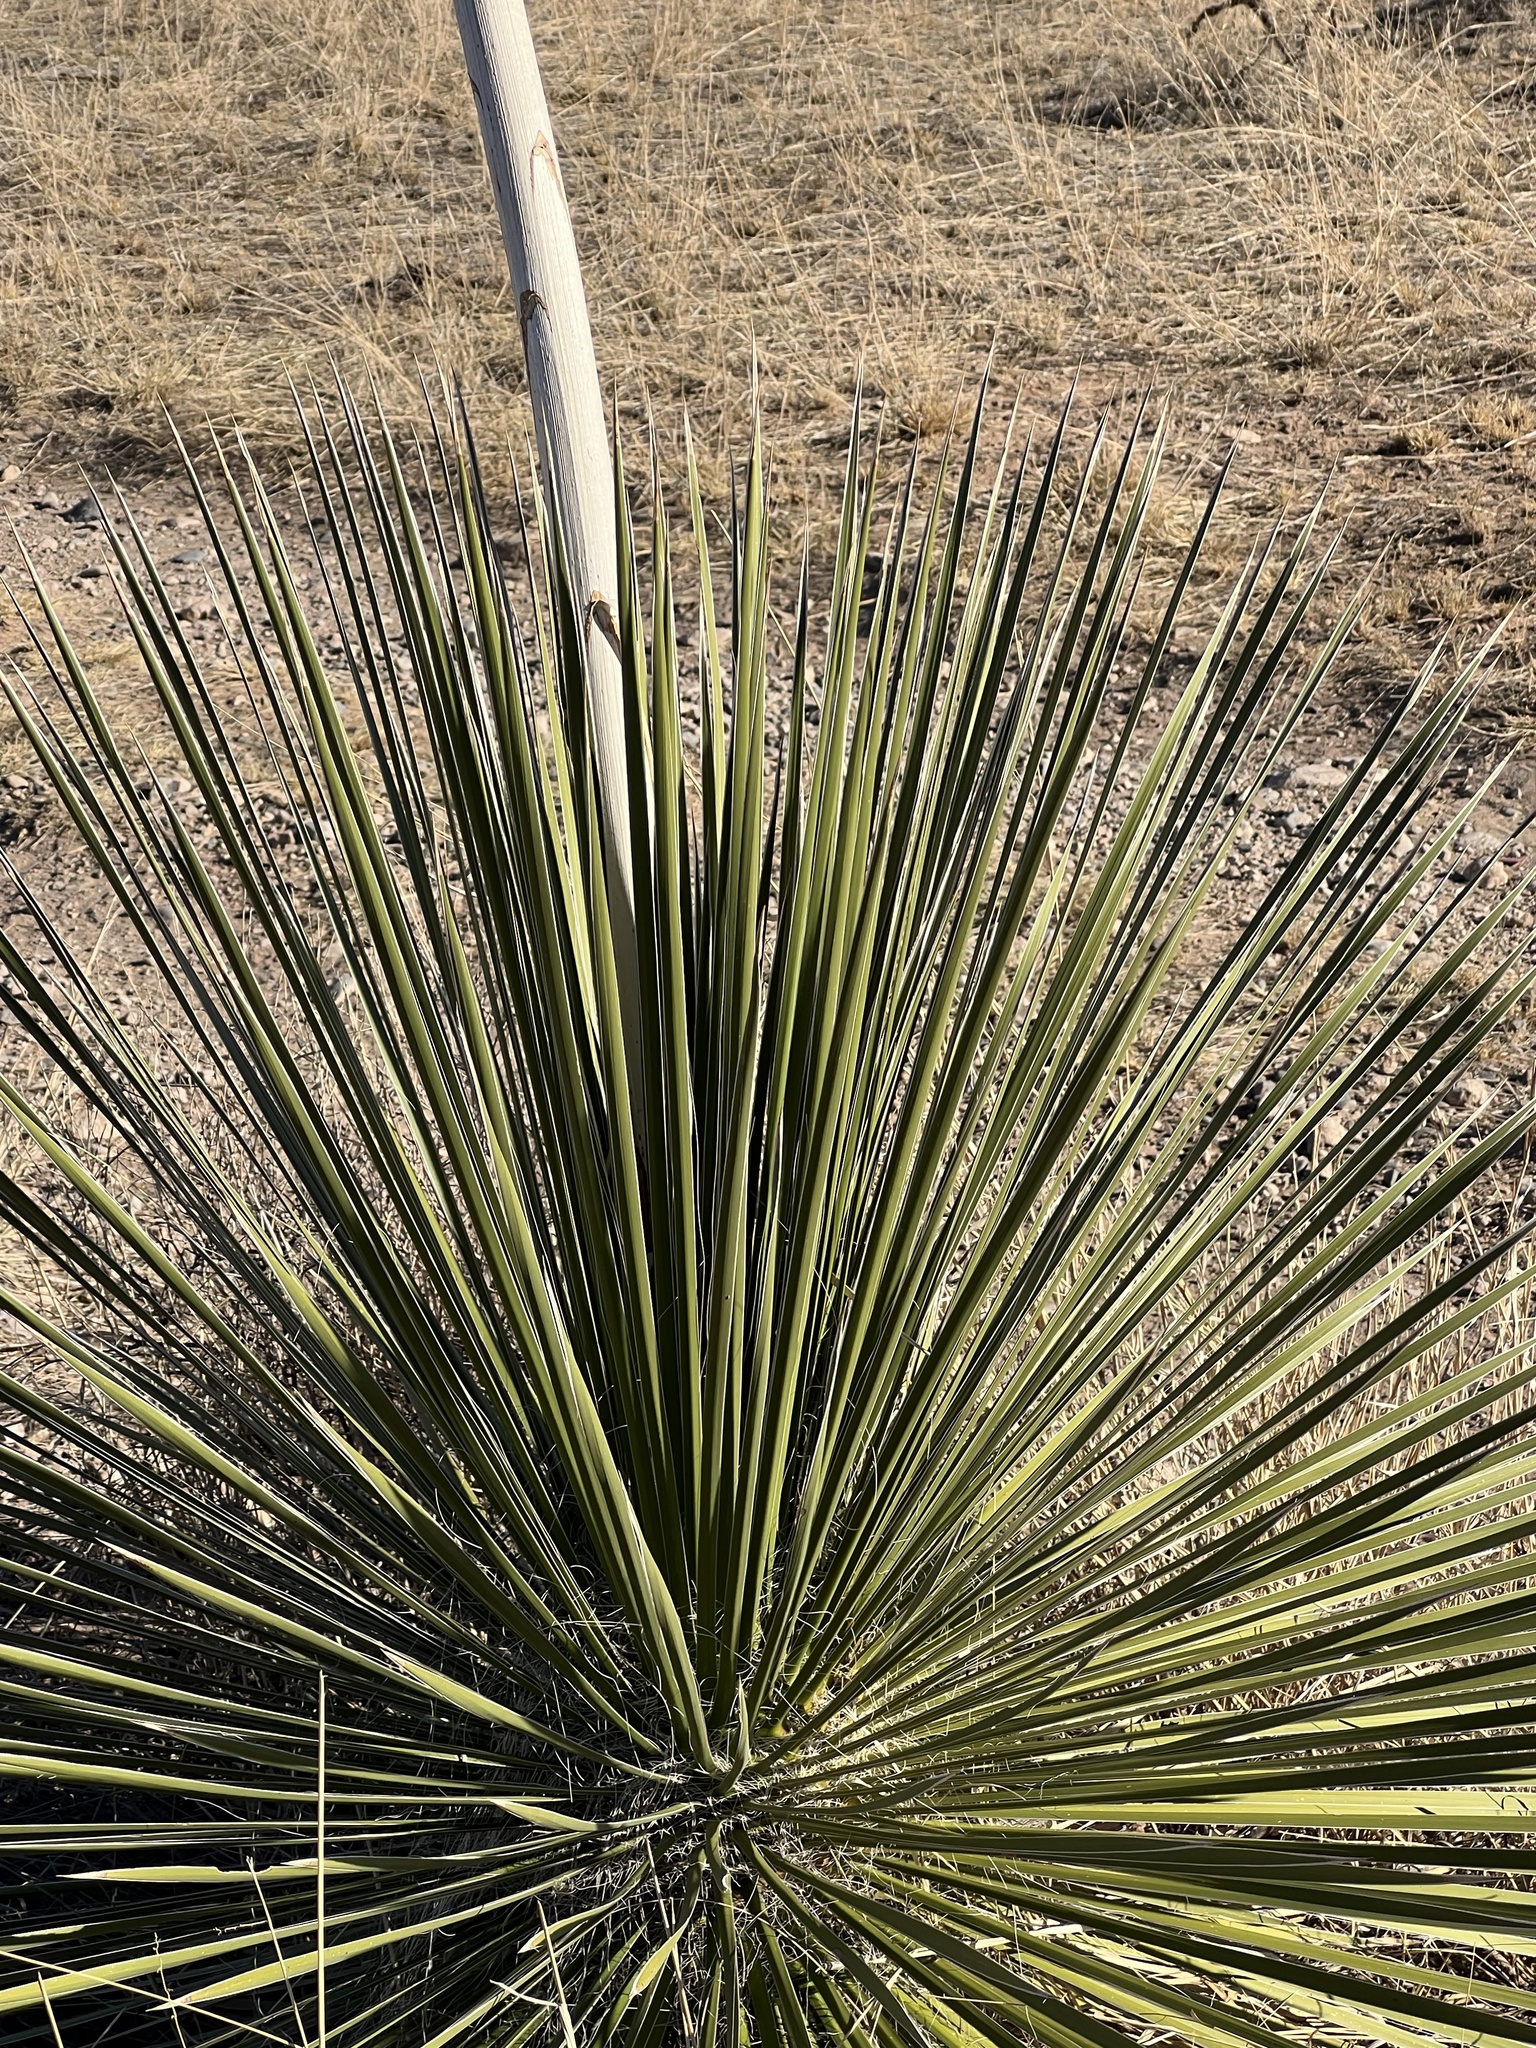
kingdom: Plantae
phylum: Tracheophyta
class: Liliopsida
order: Asparagales
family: Asparagaceae
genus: Yucca
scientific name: Yucca elata
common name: Palmella
